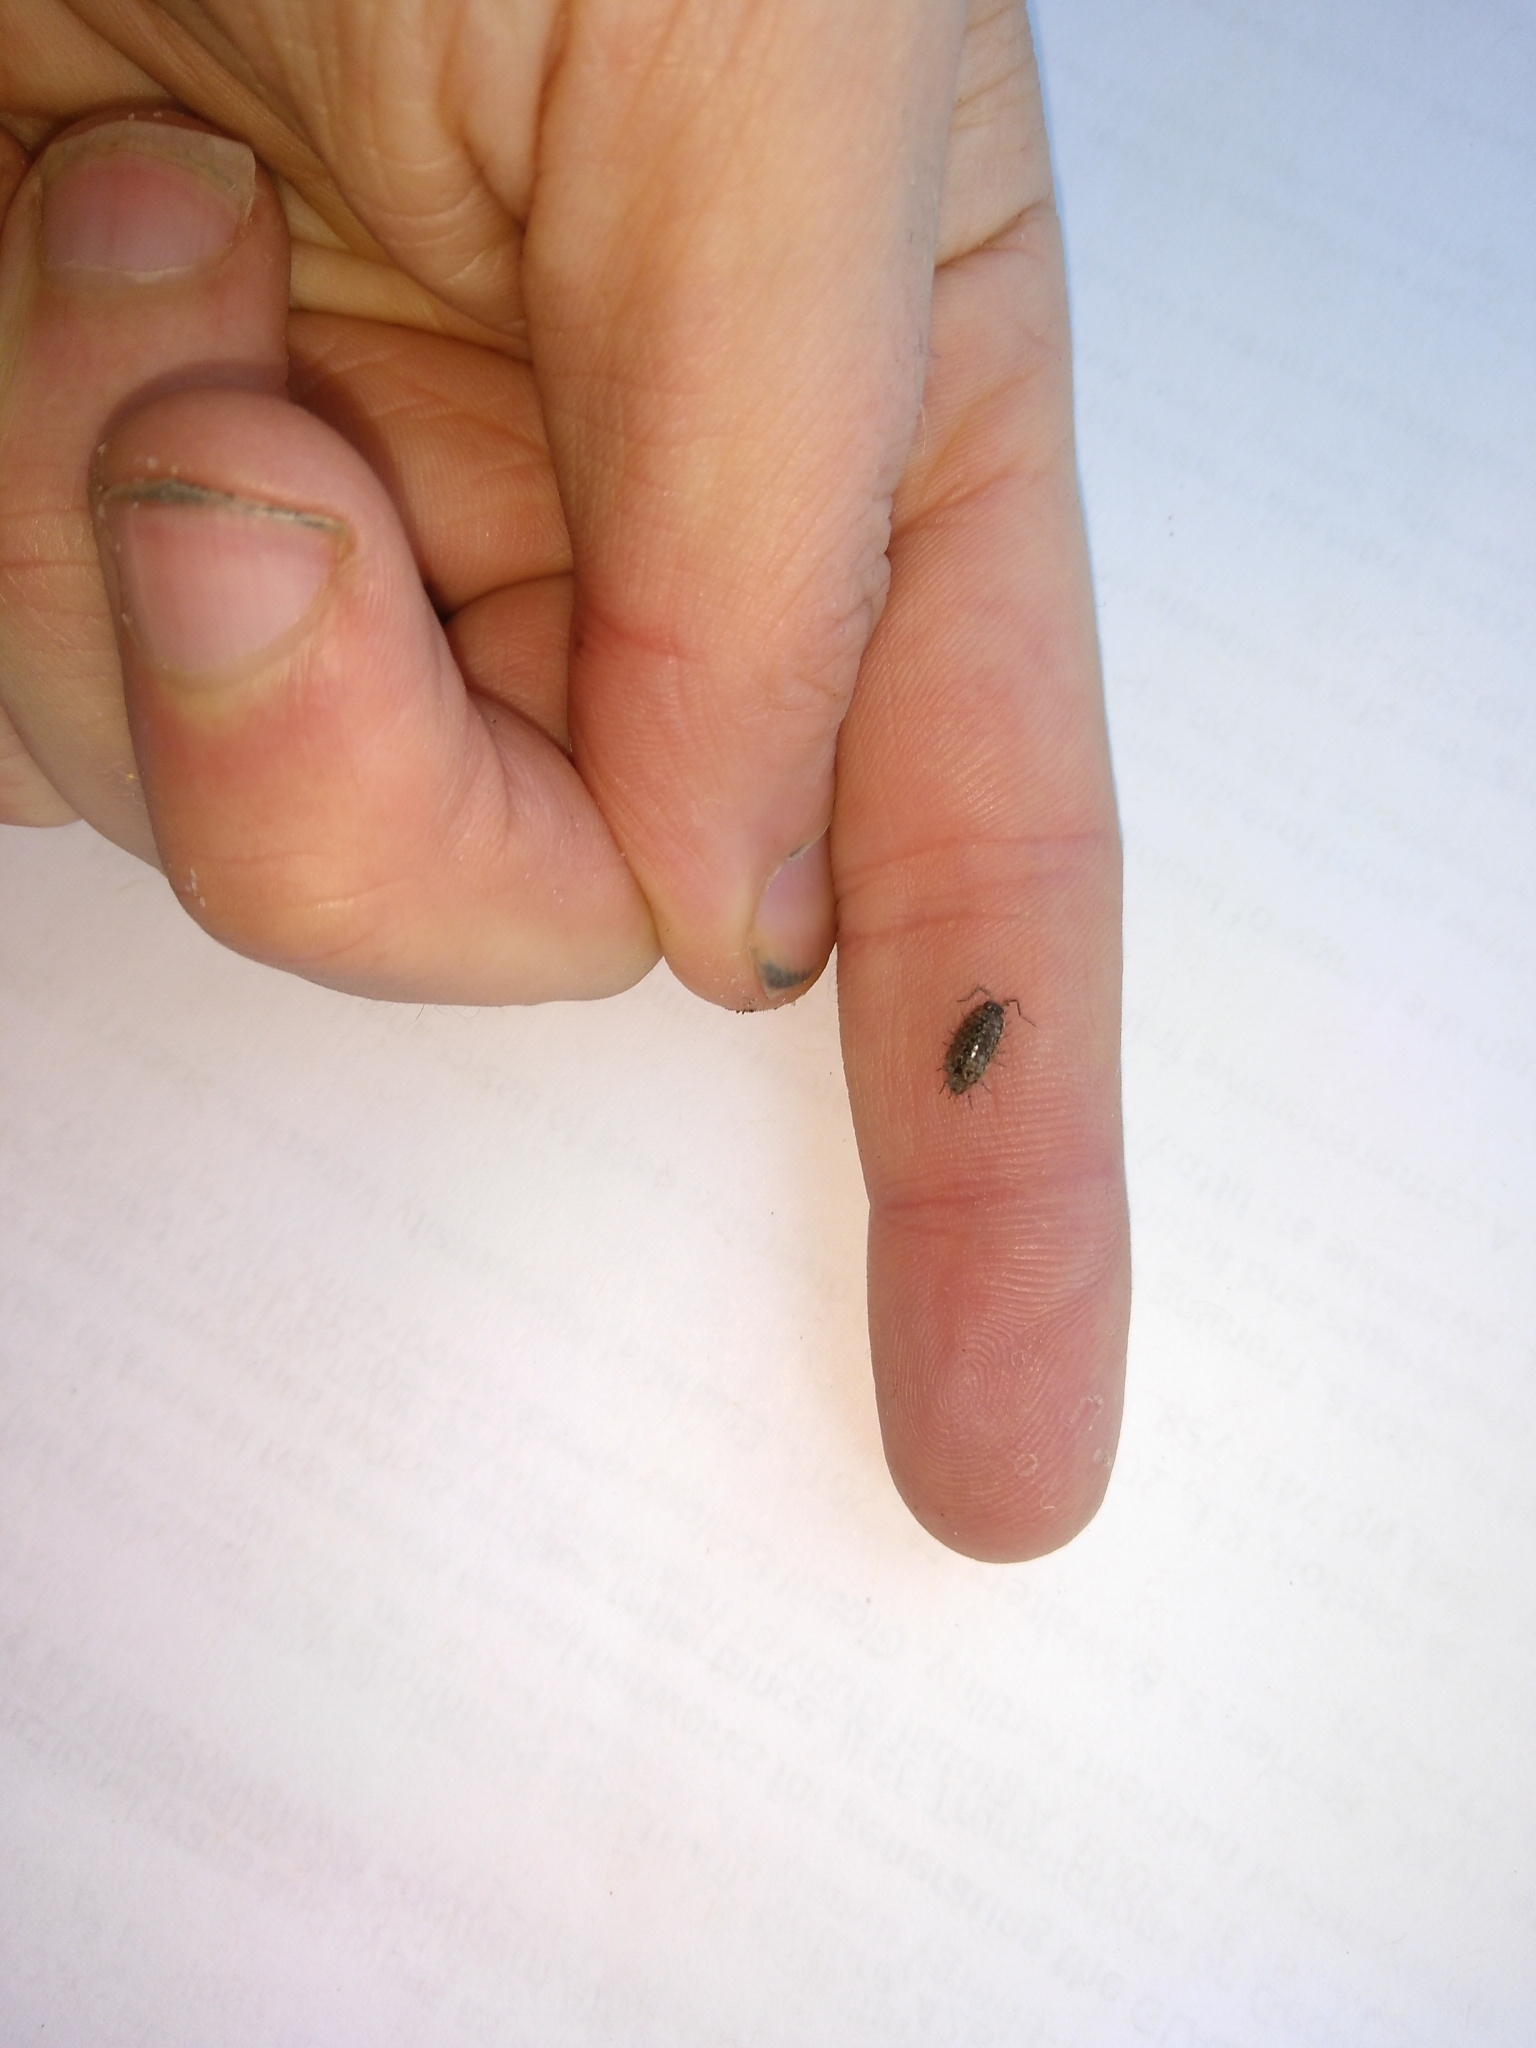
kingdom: Animalia
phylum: Arthropoda
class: Malacostraca
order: Isopoda
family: Philosciidae
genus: Philoscia
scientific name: Philoscia muscorum
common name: Common striped woodlouse
